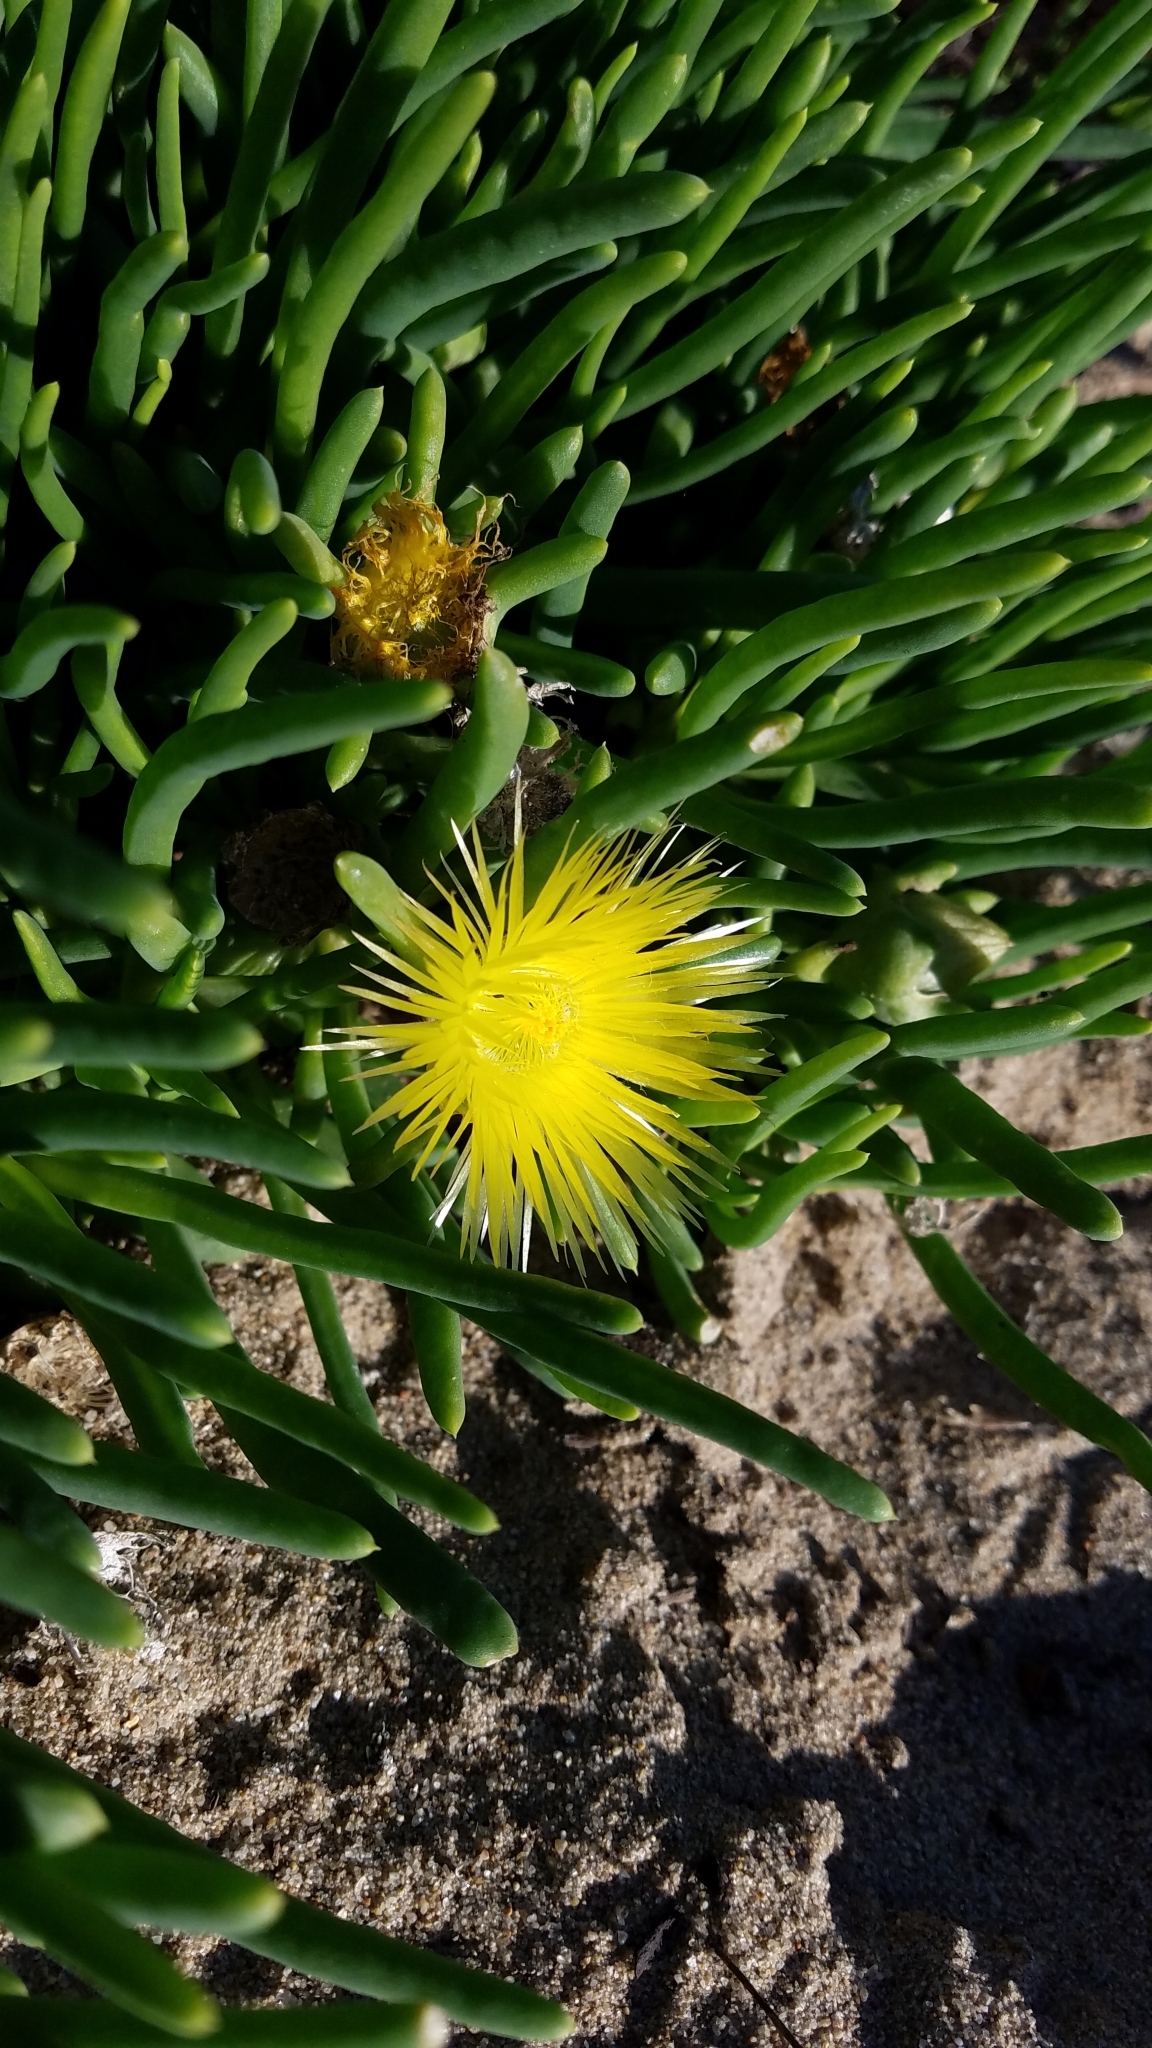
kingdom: Plantae
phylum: Tracheophyta
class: Magnoliopsida
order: Caryophyllales
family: Aizoaceae
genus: Conicosia
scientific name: Conicosia pugioniformis
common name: Narrow-leaved iceplant
